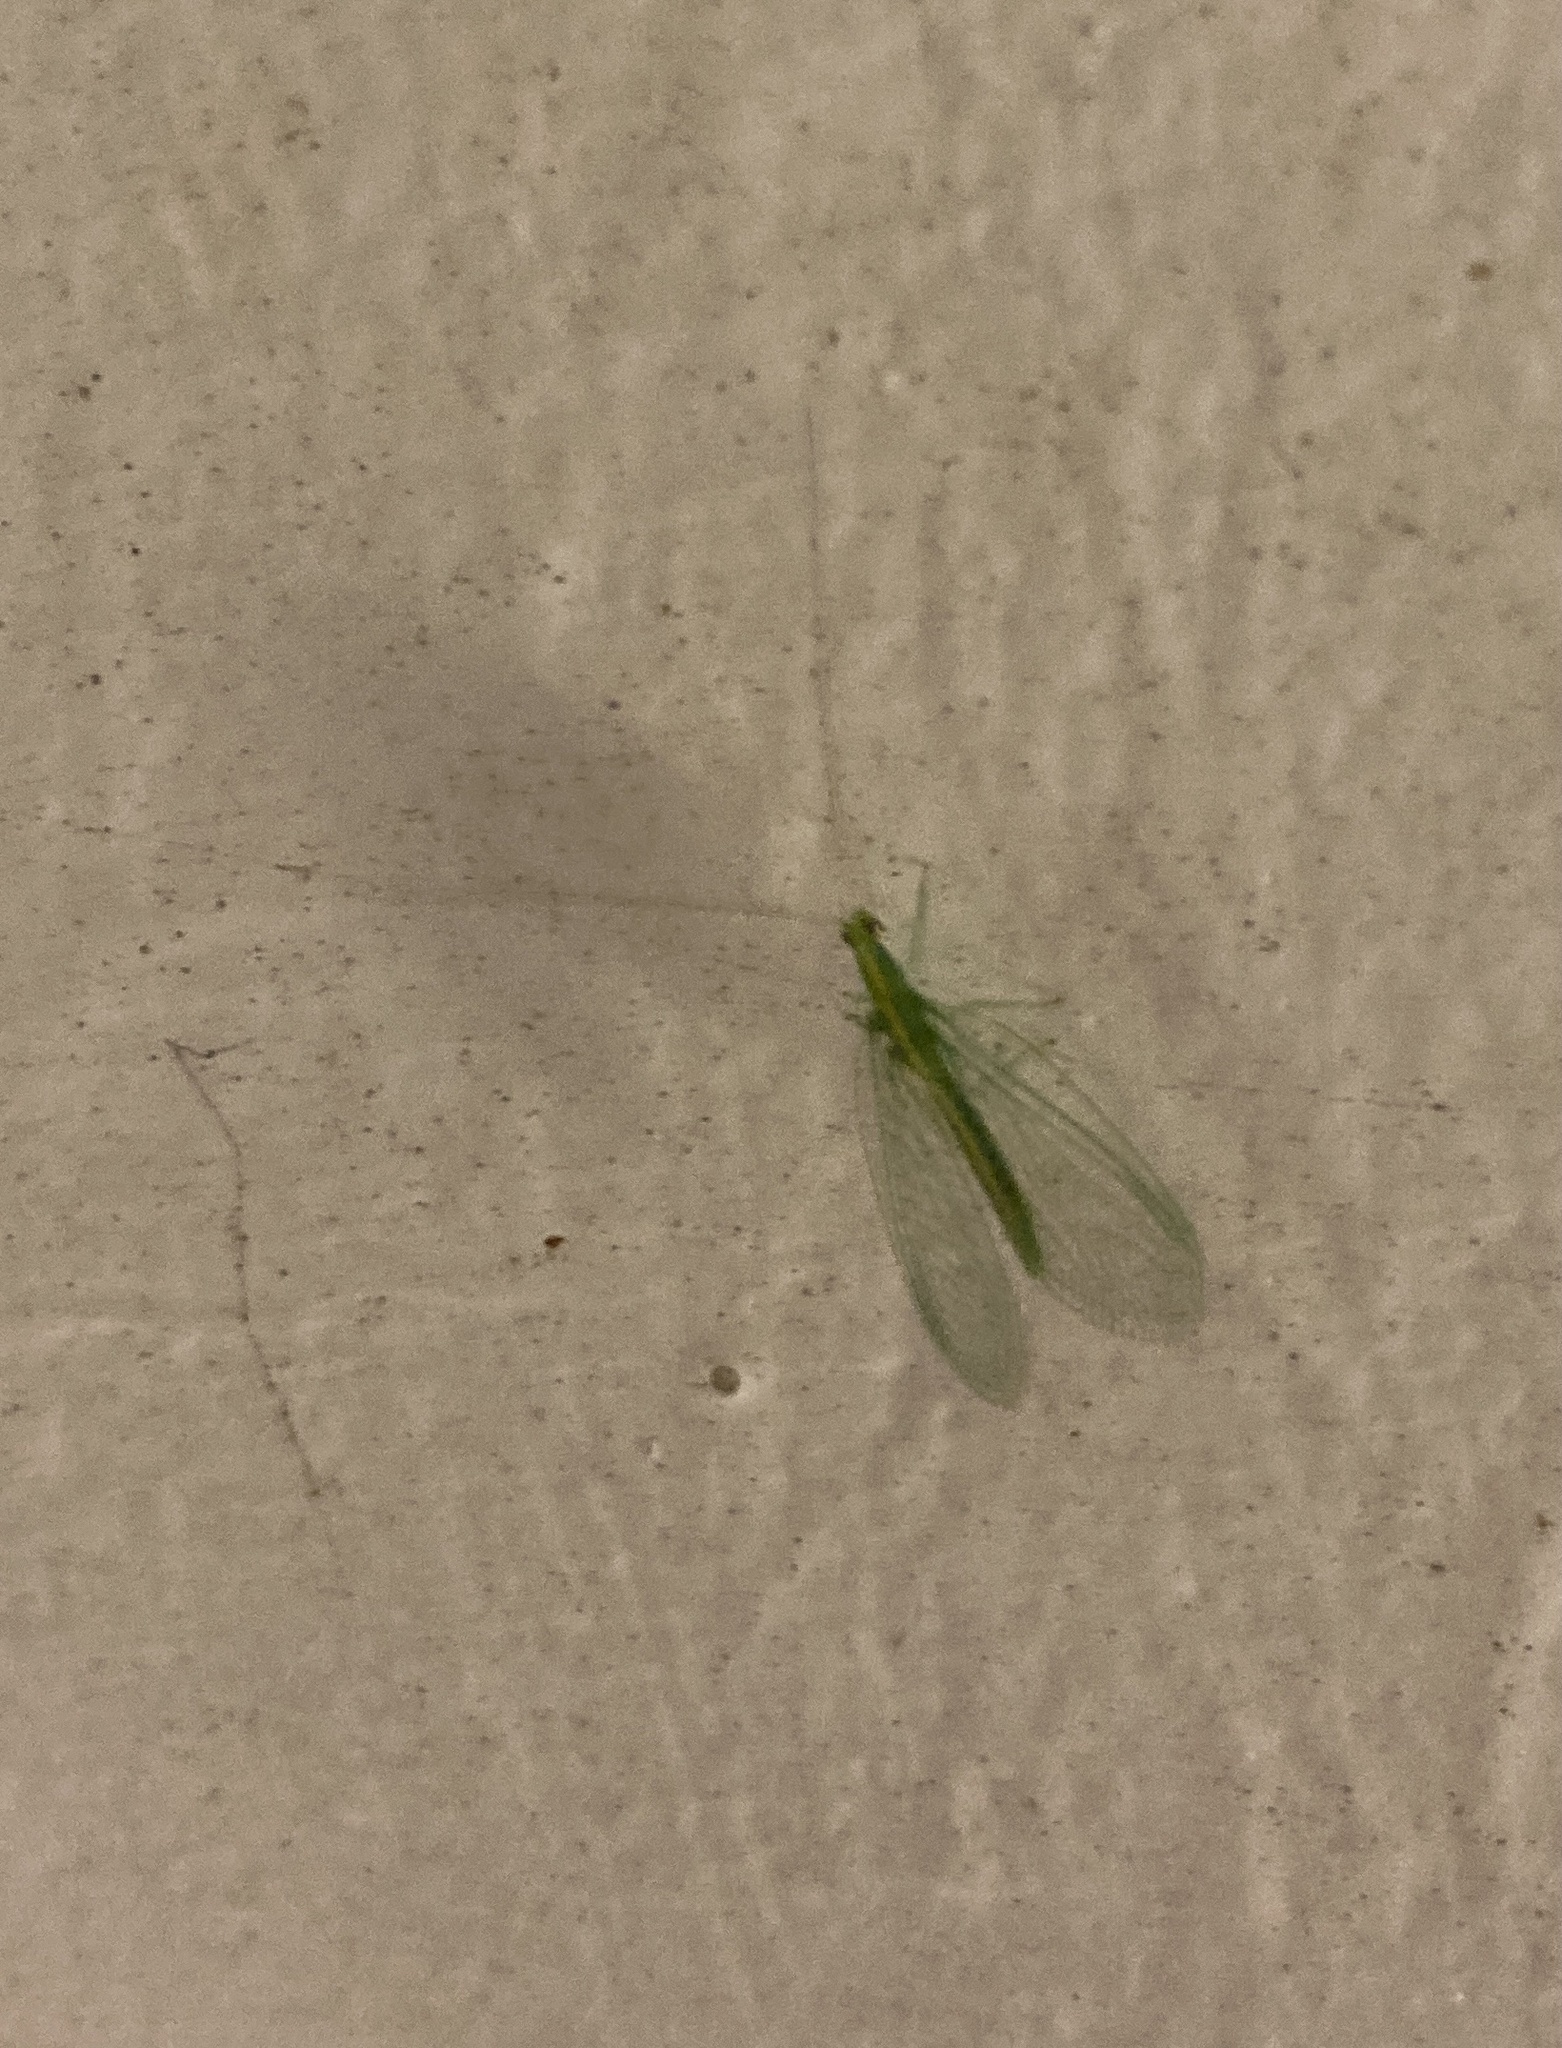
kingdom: Animalia
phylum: Arthropoda
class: Insecta
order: Neuroptera
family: Chrysopidae
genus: Mallada
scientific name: Mallada basalis
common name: Green lacewing
